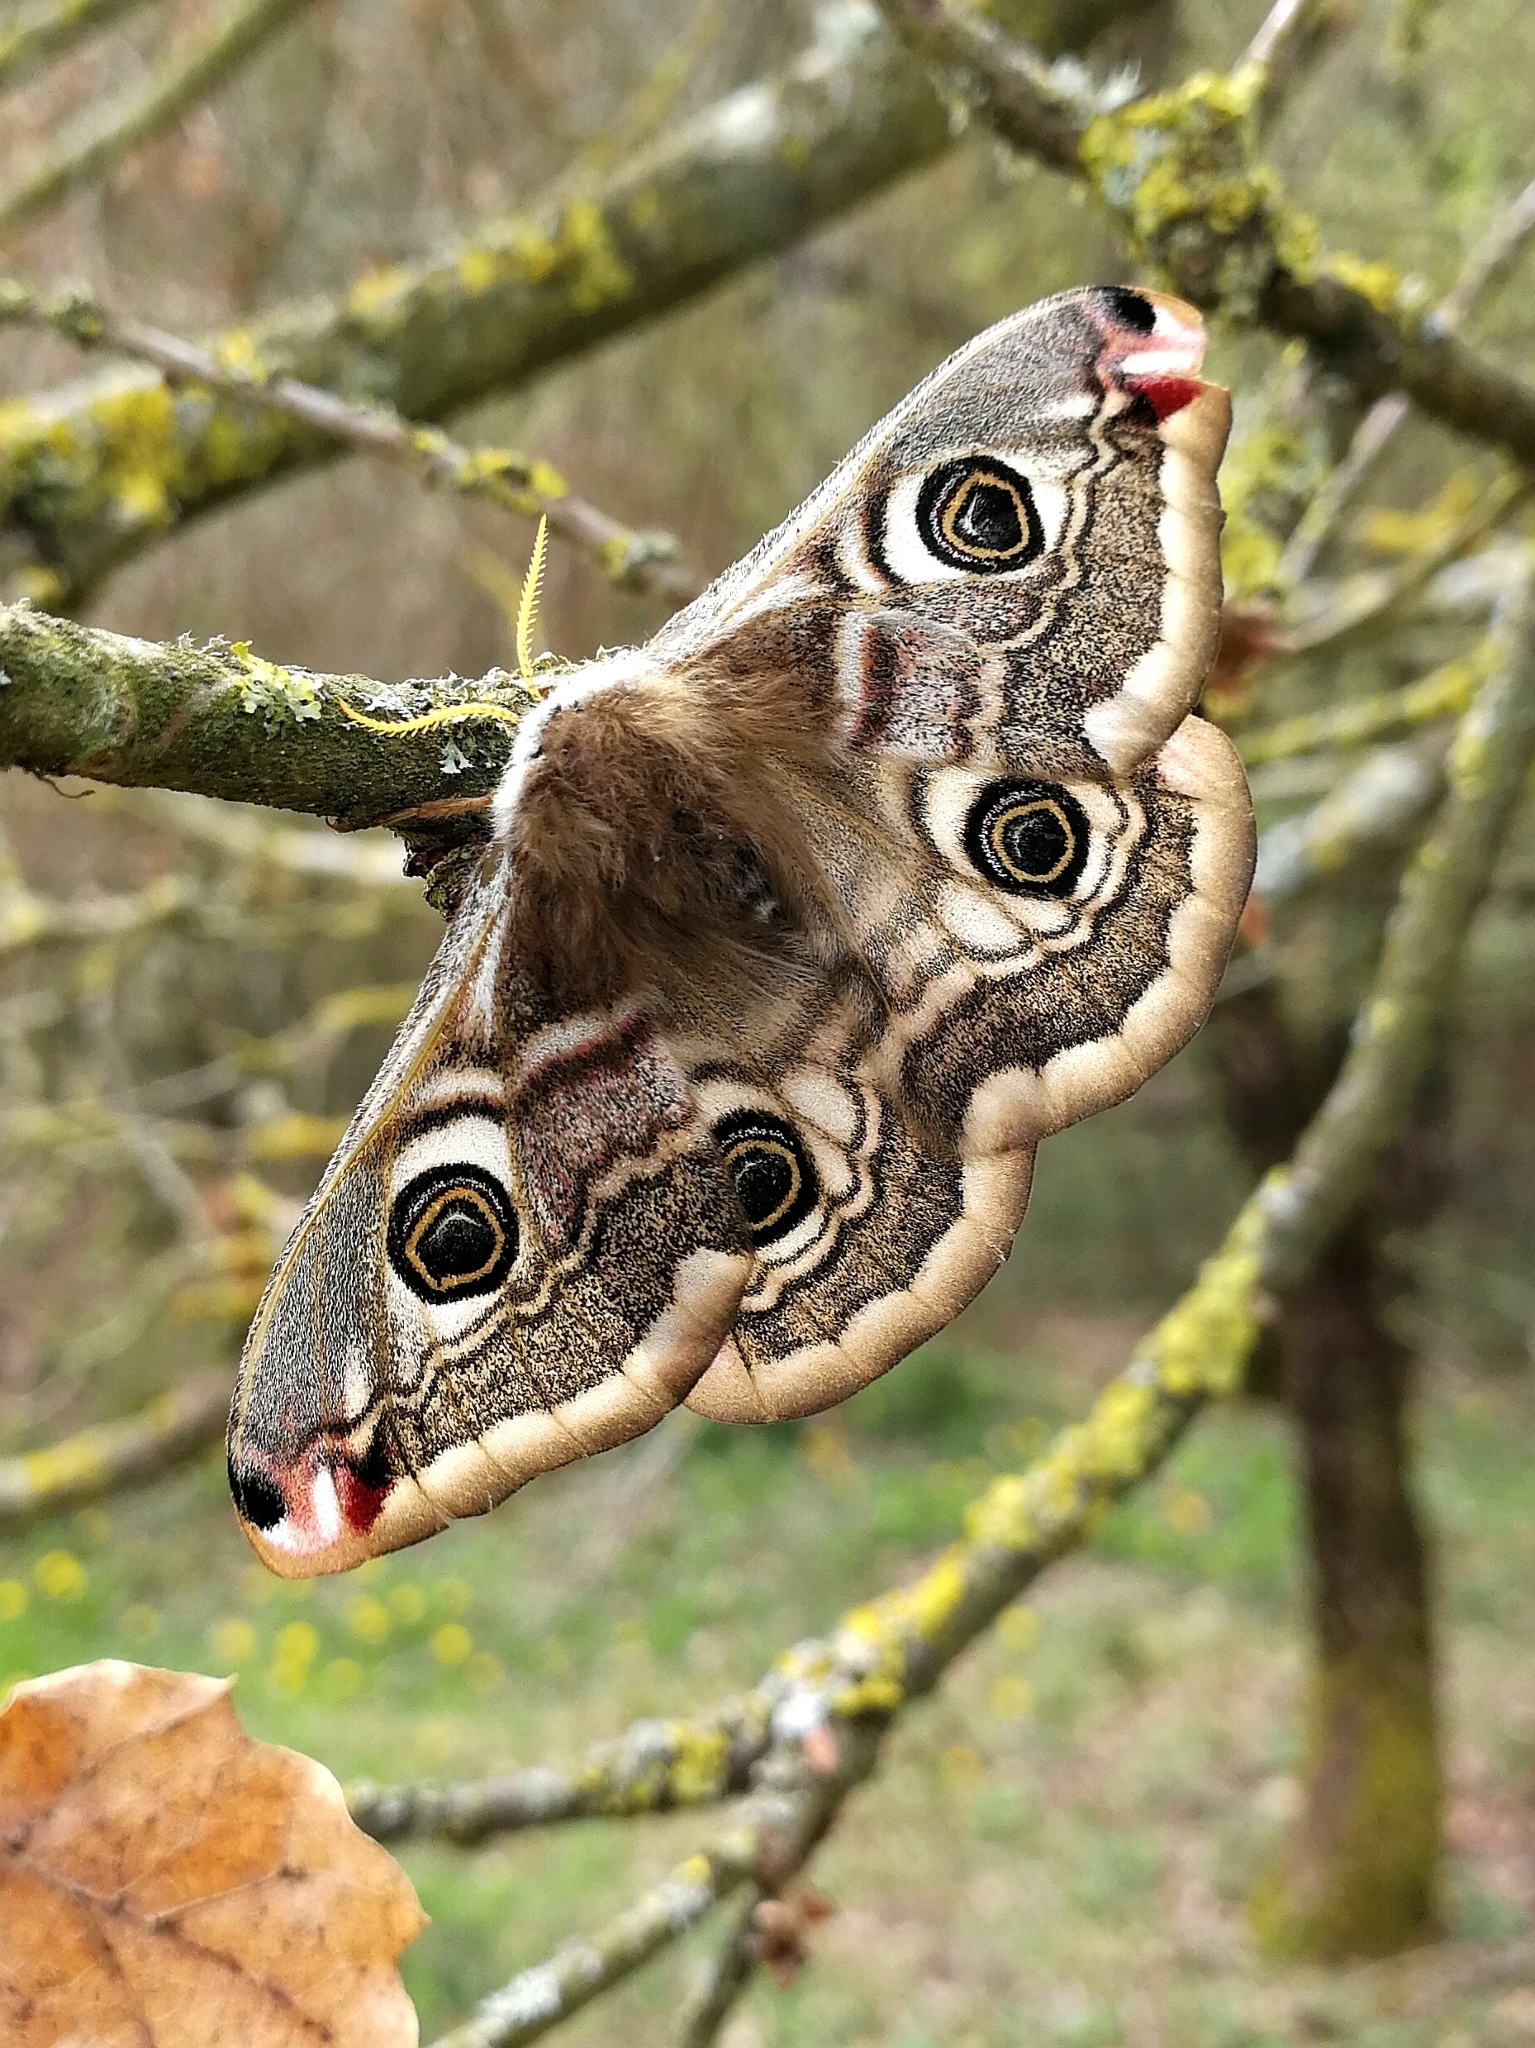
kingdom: Animalia
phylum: Arthropoda
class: Insecta
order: Lepidoptera
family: Saturniidae
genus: Saturnia
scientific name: Saturnia pavonia
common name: Emperor moth
